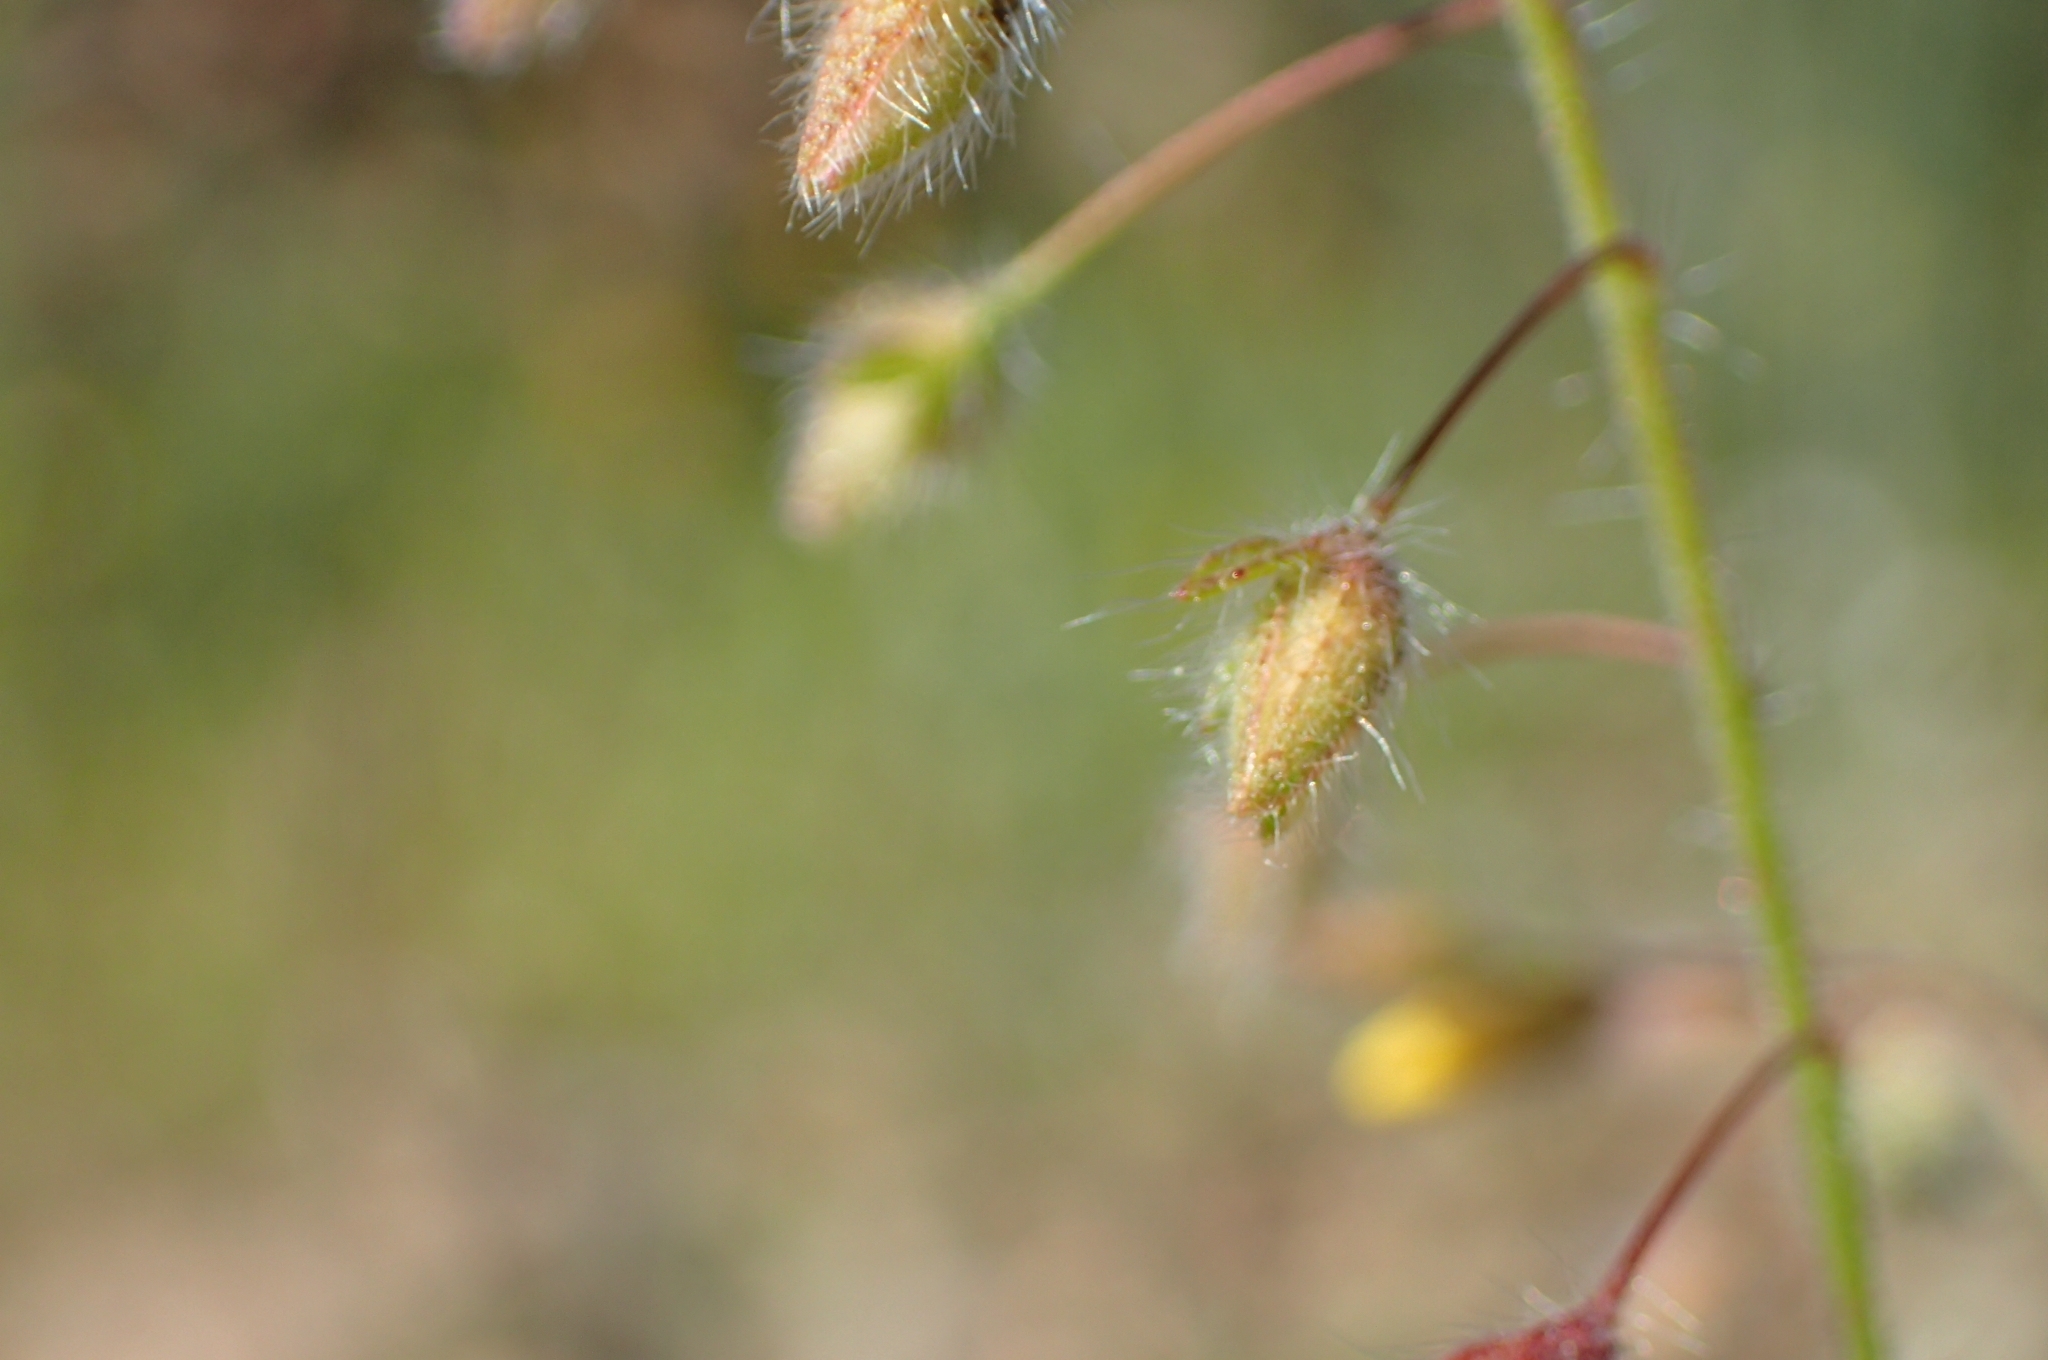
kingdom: Plantae
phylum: Tracheophyta
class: Magnoliopsida
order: Malvales
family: Cistaceae
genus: Tuberaria
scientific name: Tuberaria inconspicua
